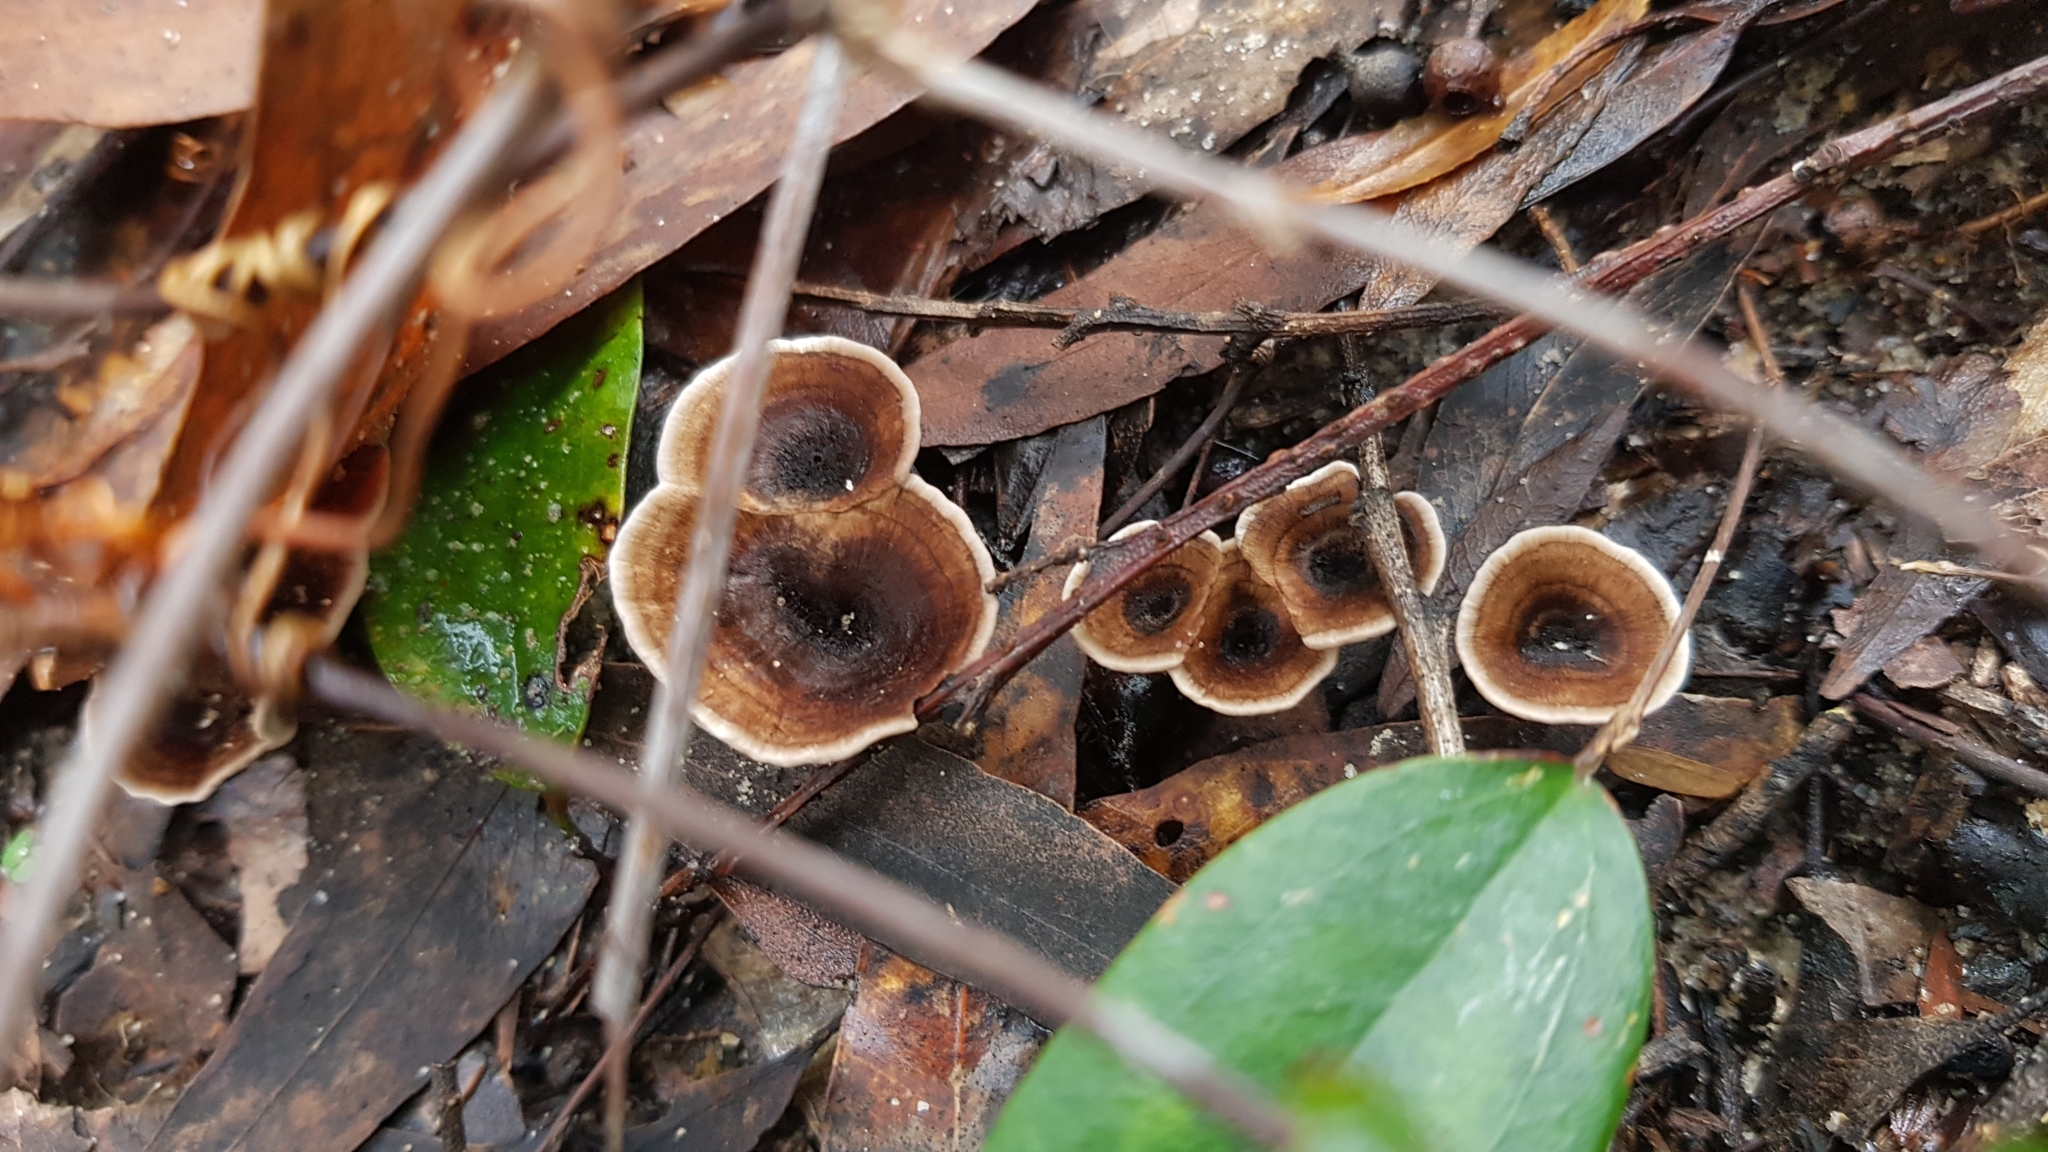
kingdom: Fungi
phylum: Basidiomycota
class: Agaricomycetes
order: Thelephorales
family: Bankeraceae
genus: Hydnellum
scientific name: Hydnellum auratile
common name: Gold tooth
